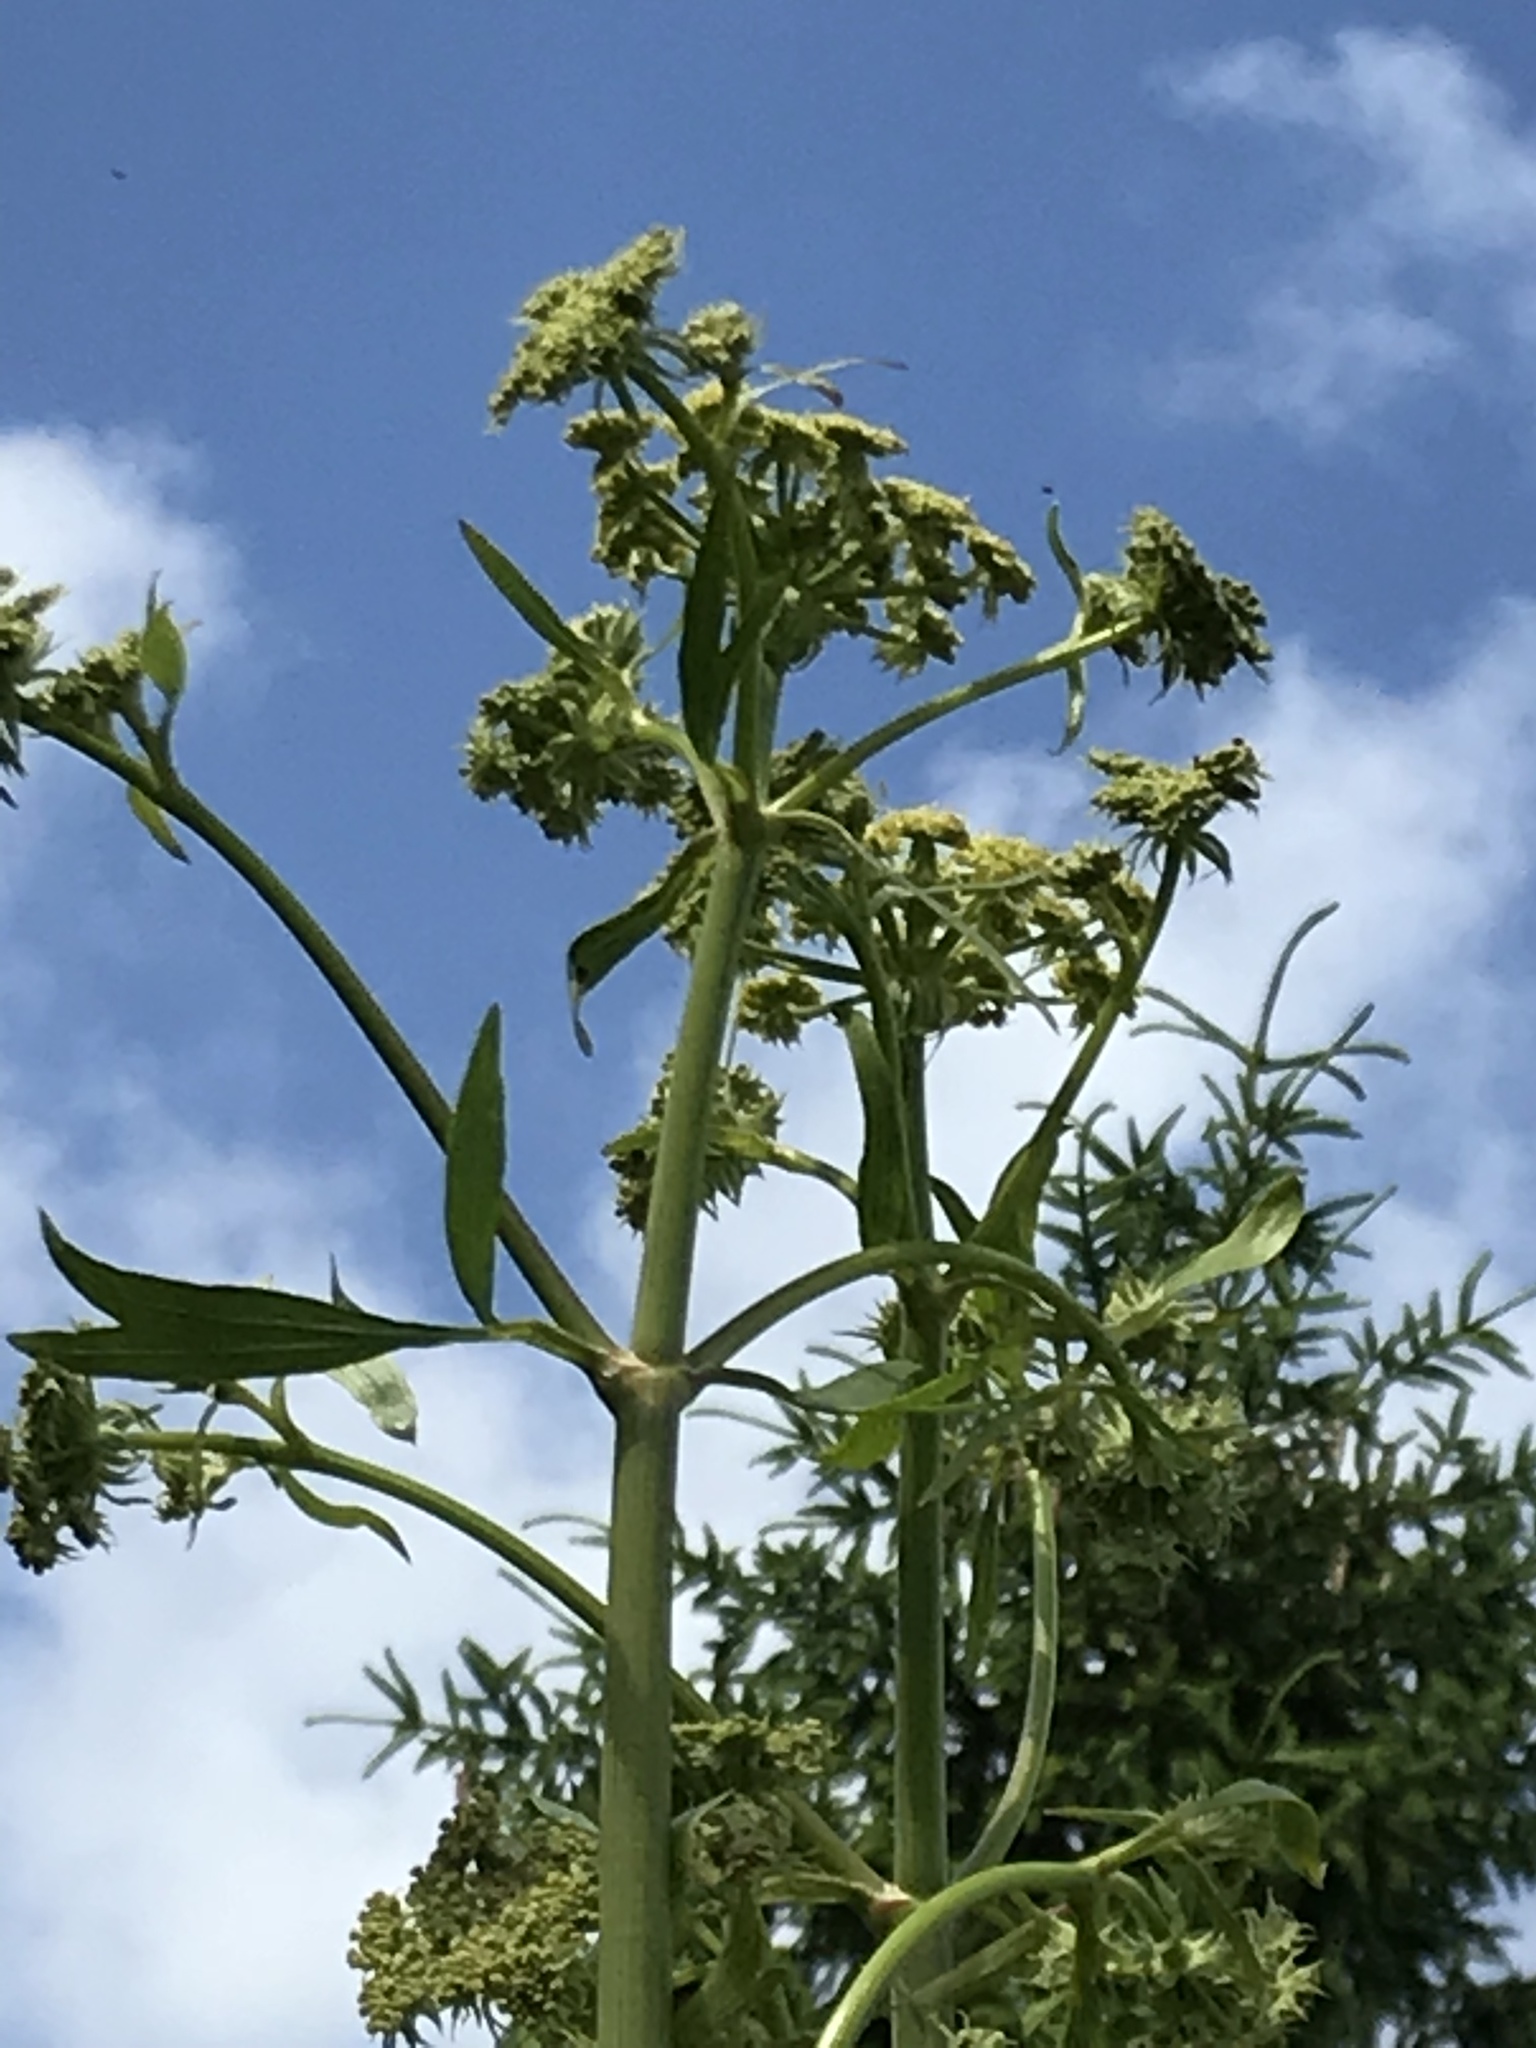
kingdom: Plantae
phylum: Tracheophyta
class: Magnoliopsida
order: Apiales
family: Apiaceae
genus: Heracleum
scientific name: Heracleum sphondylium
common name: Hogweed
